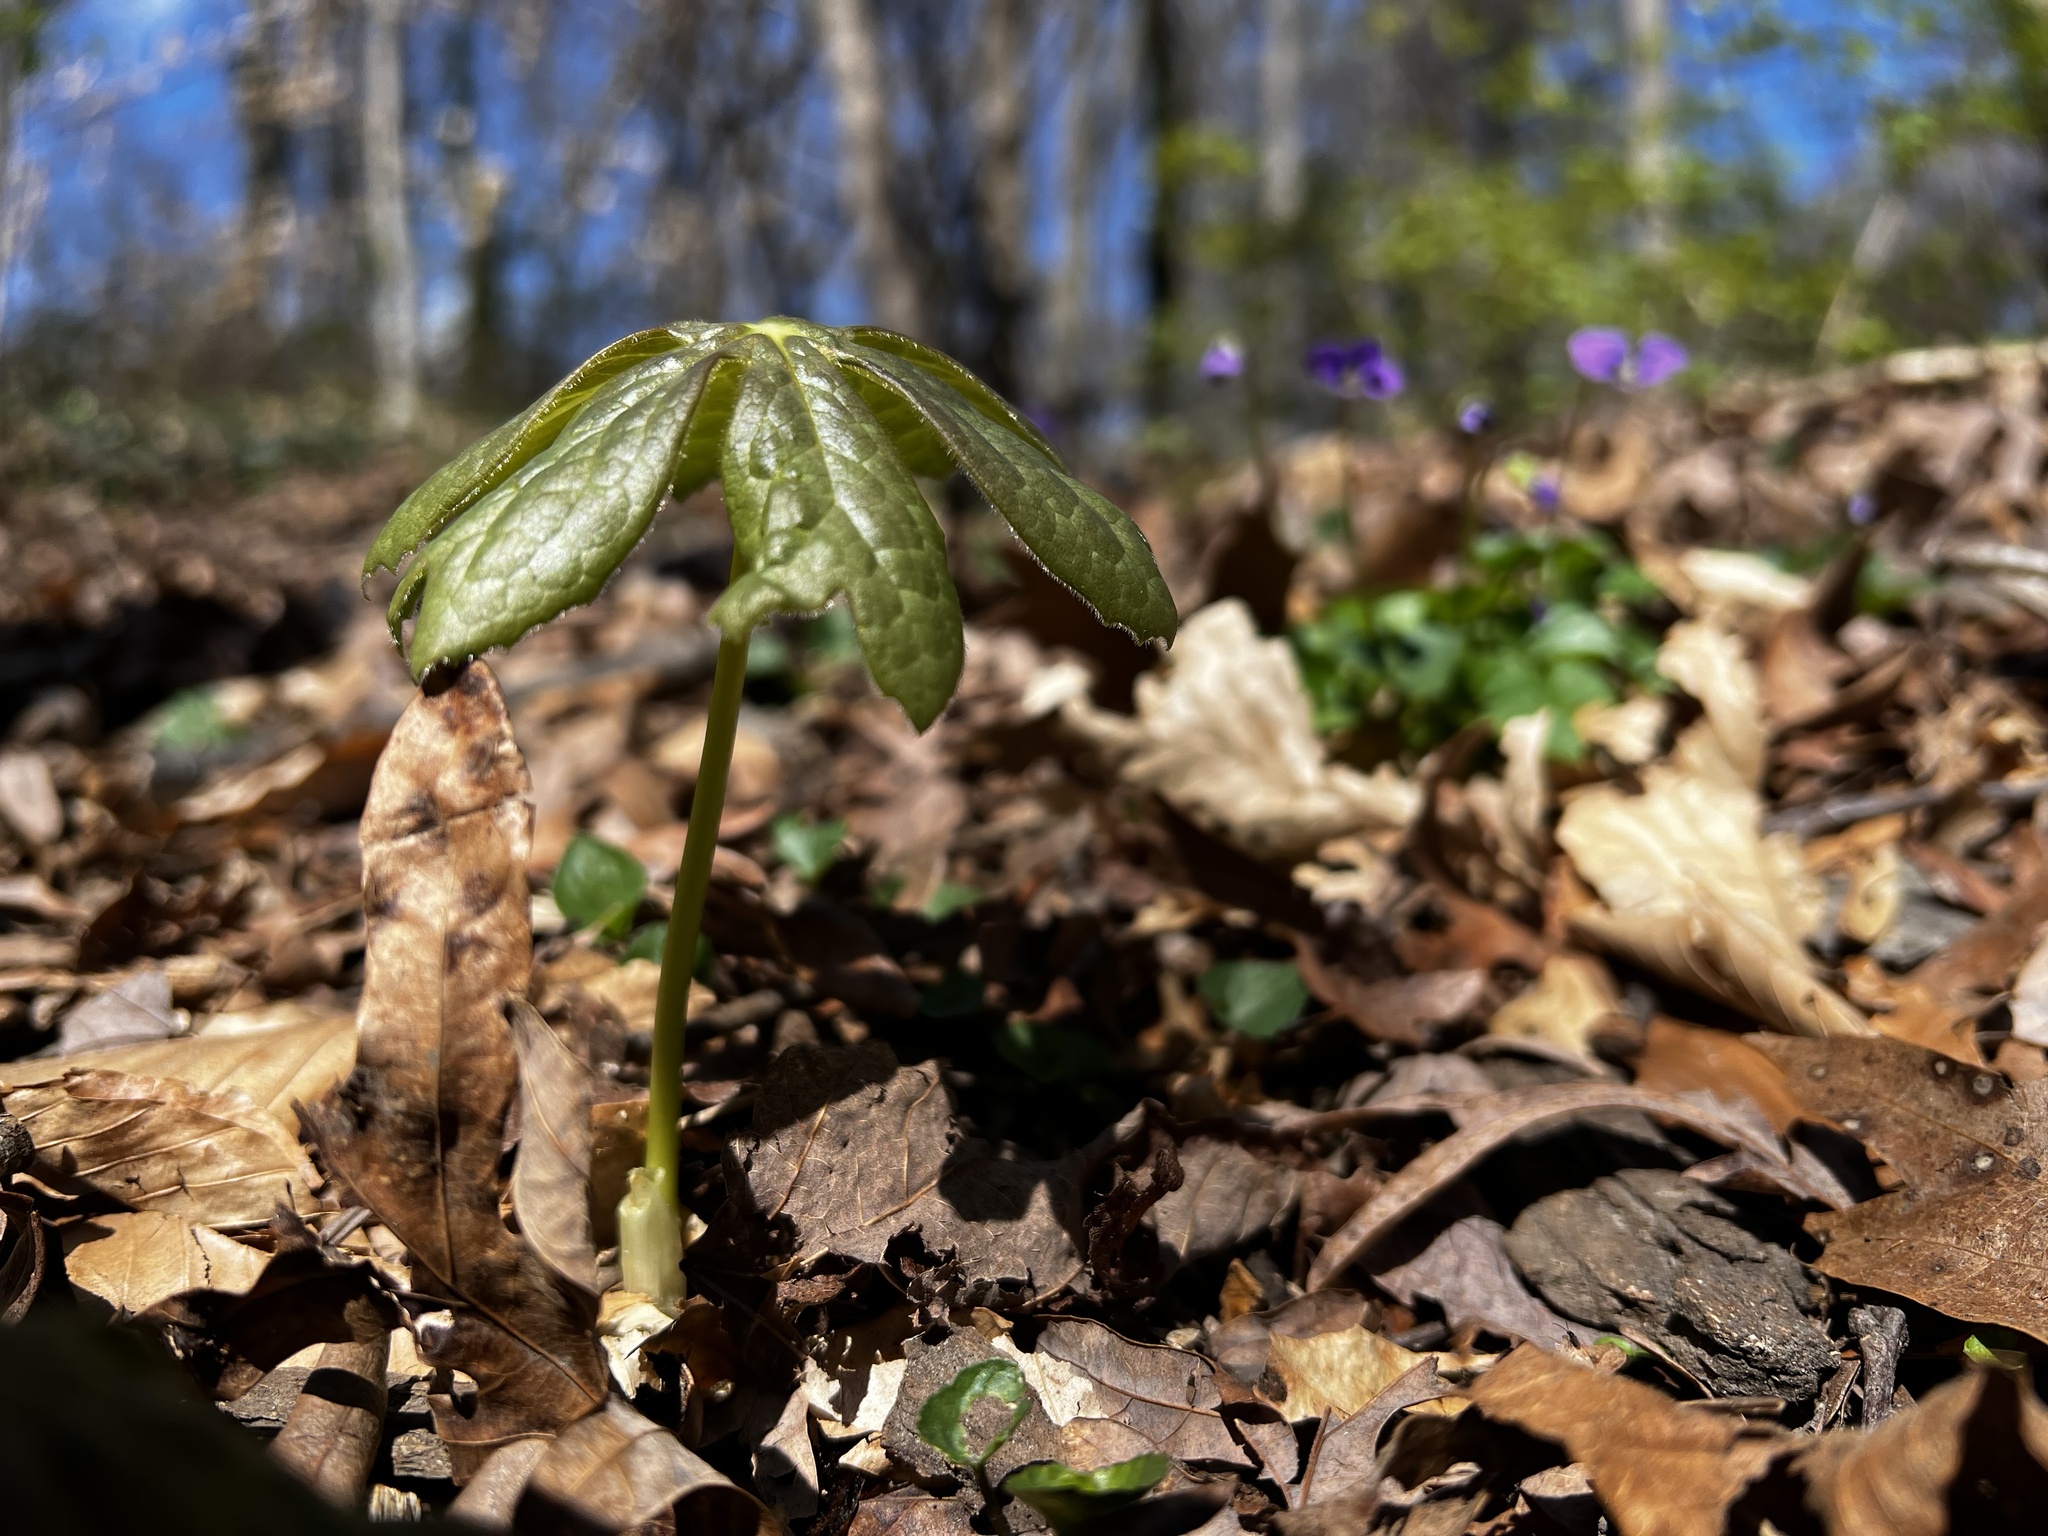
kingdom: Plantae
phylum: Tracheophyta
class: Magnoliopsida
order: Ranunculales
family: Berberidaceae
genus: Podophyllum
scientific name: Podophyllum peltatum
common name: Wild mandrake
